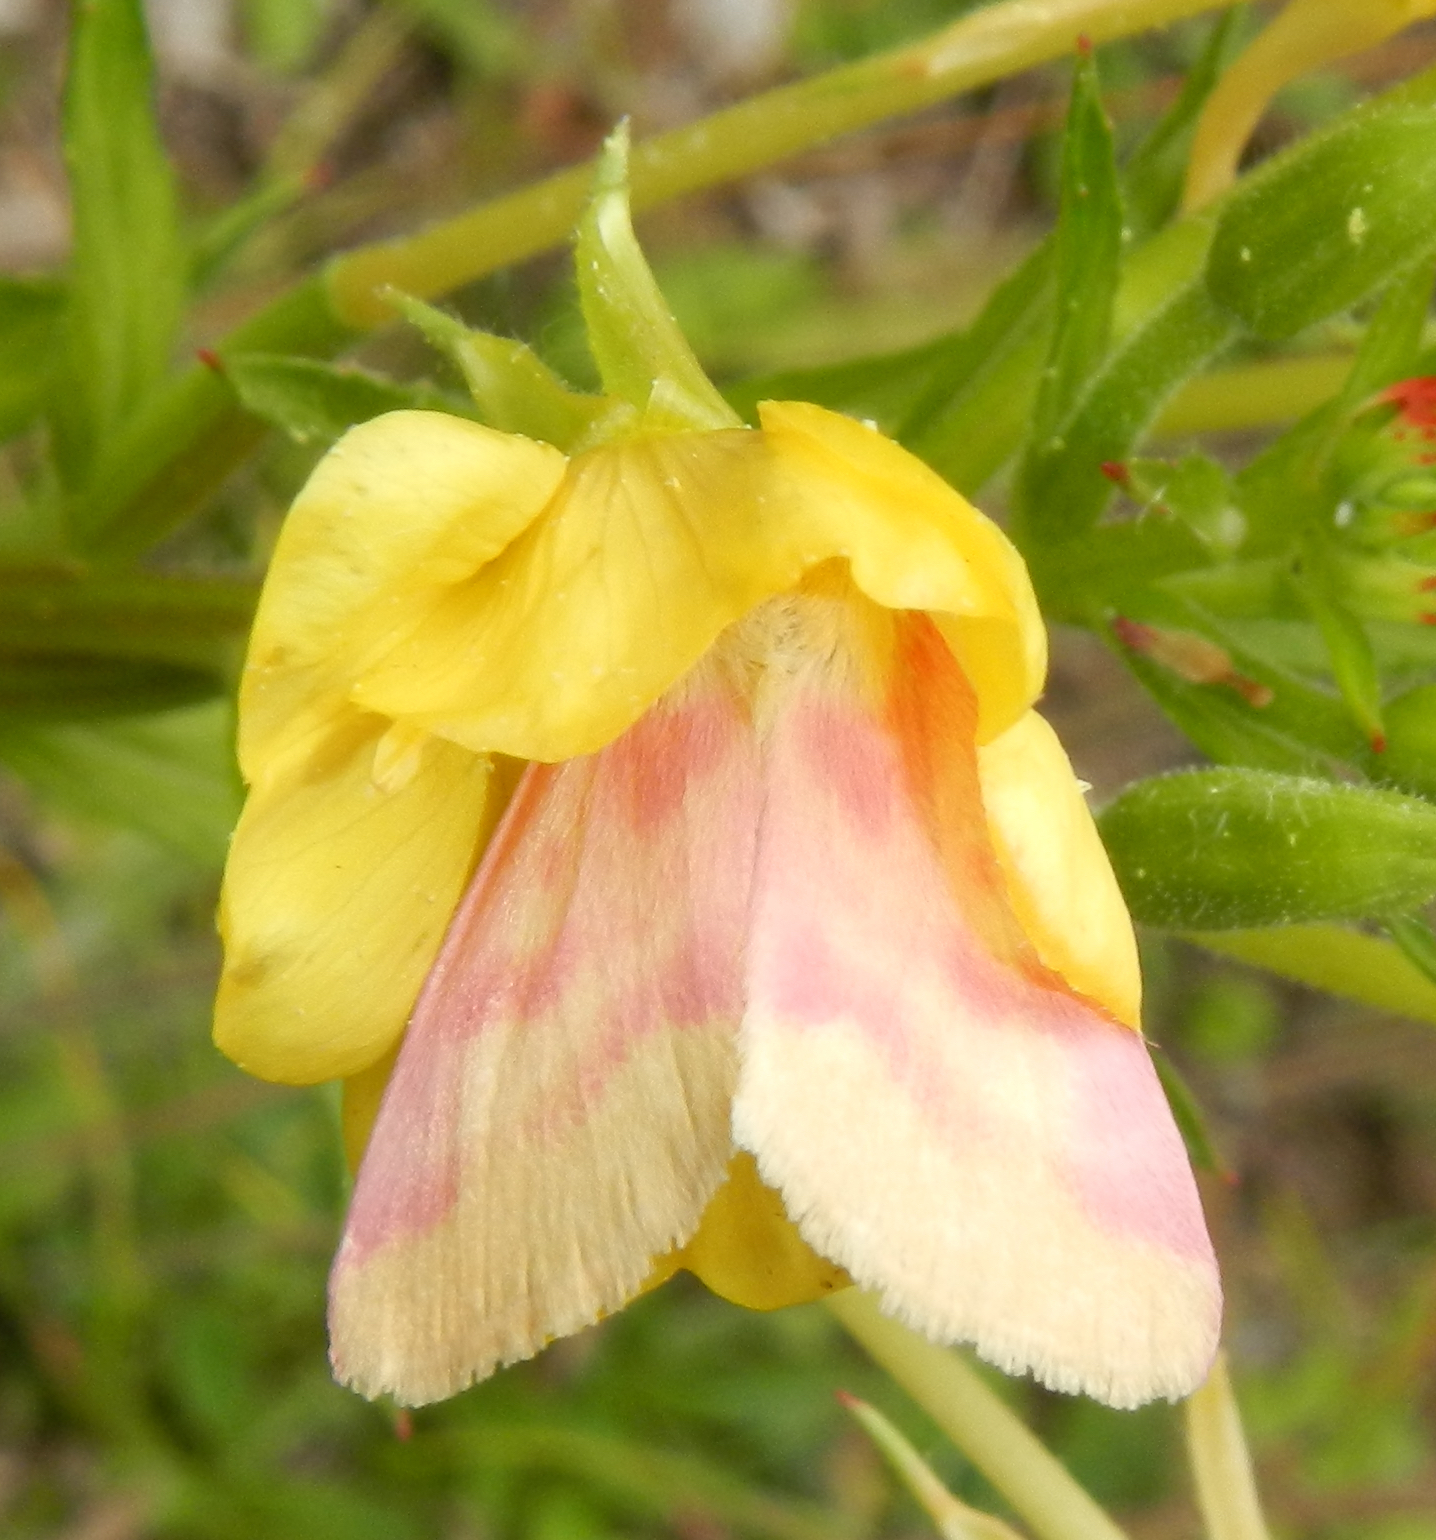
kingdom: Animalia
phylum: Arthropoda
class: Insecta
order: Lepidoptera
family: Noctuidae
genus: Schinia
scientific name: Schinia florida
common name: Primrose moth
